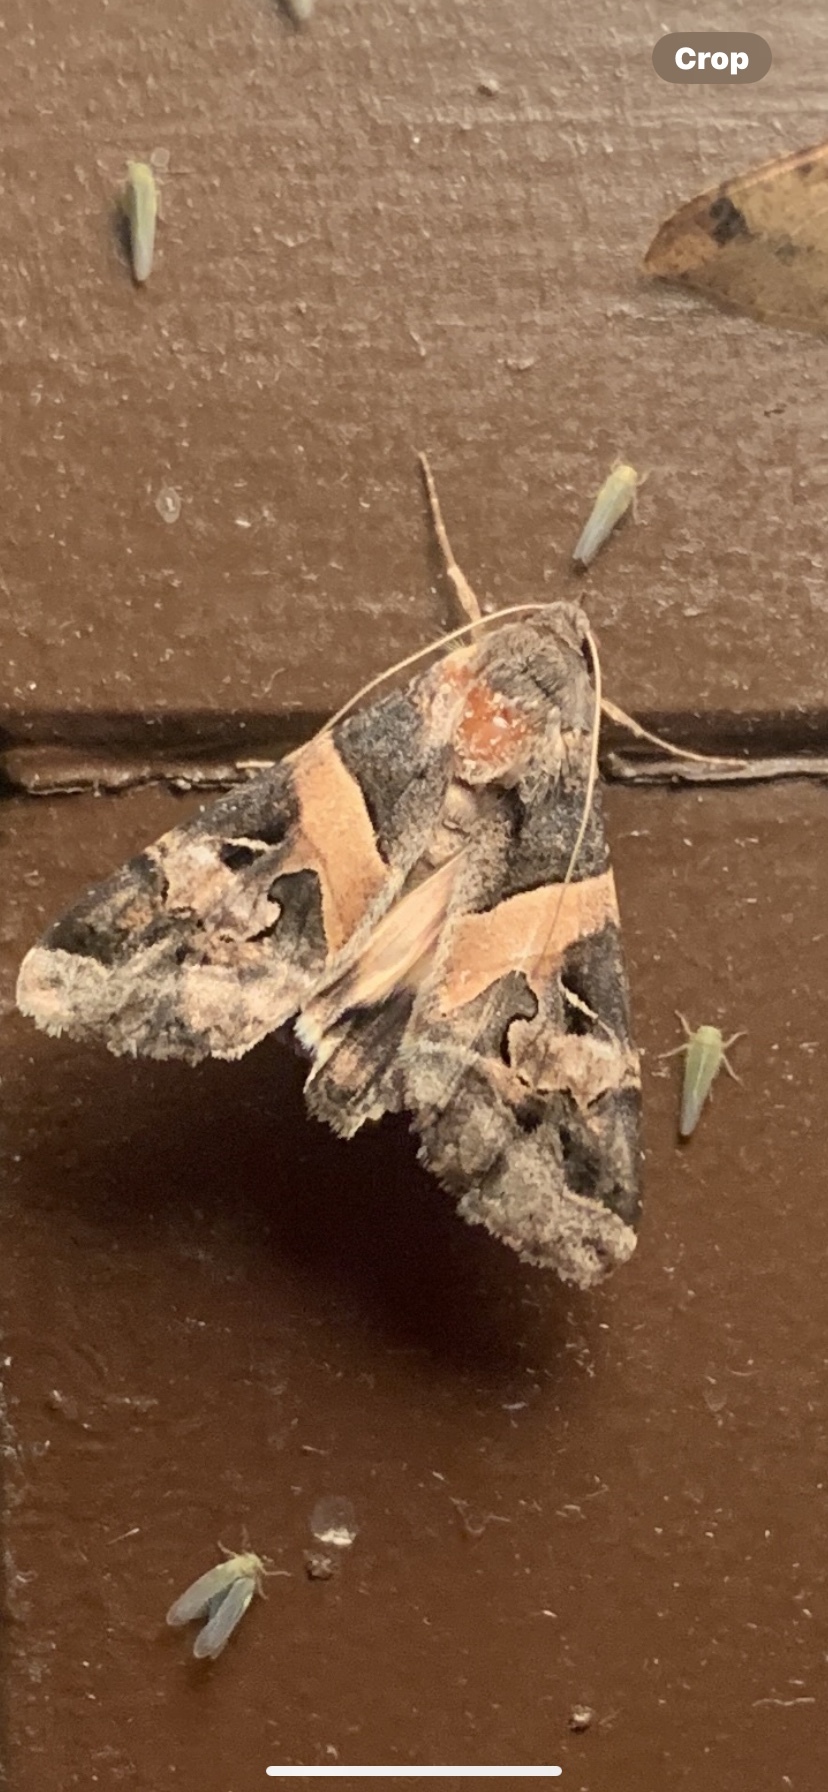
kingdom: Animalia
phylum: Arthropoda
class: Insecta
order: Lepidoptera
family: Erebidae
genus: Melipotis
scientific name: Melipotis indomita
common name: Moth
